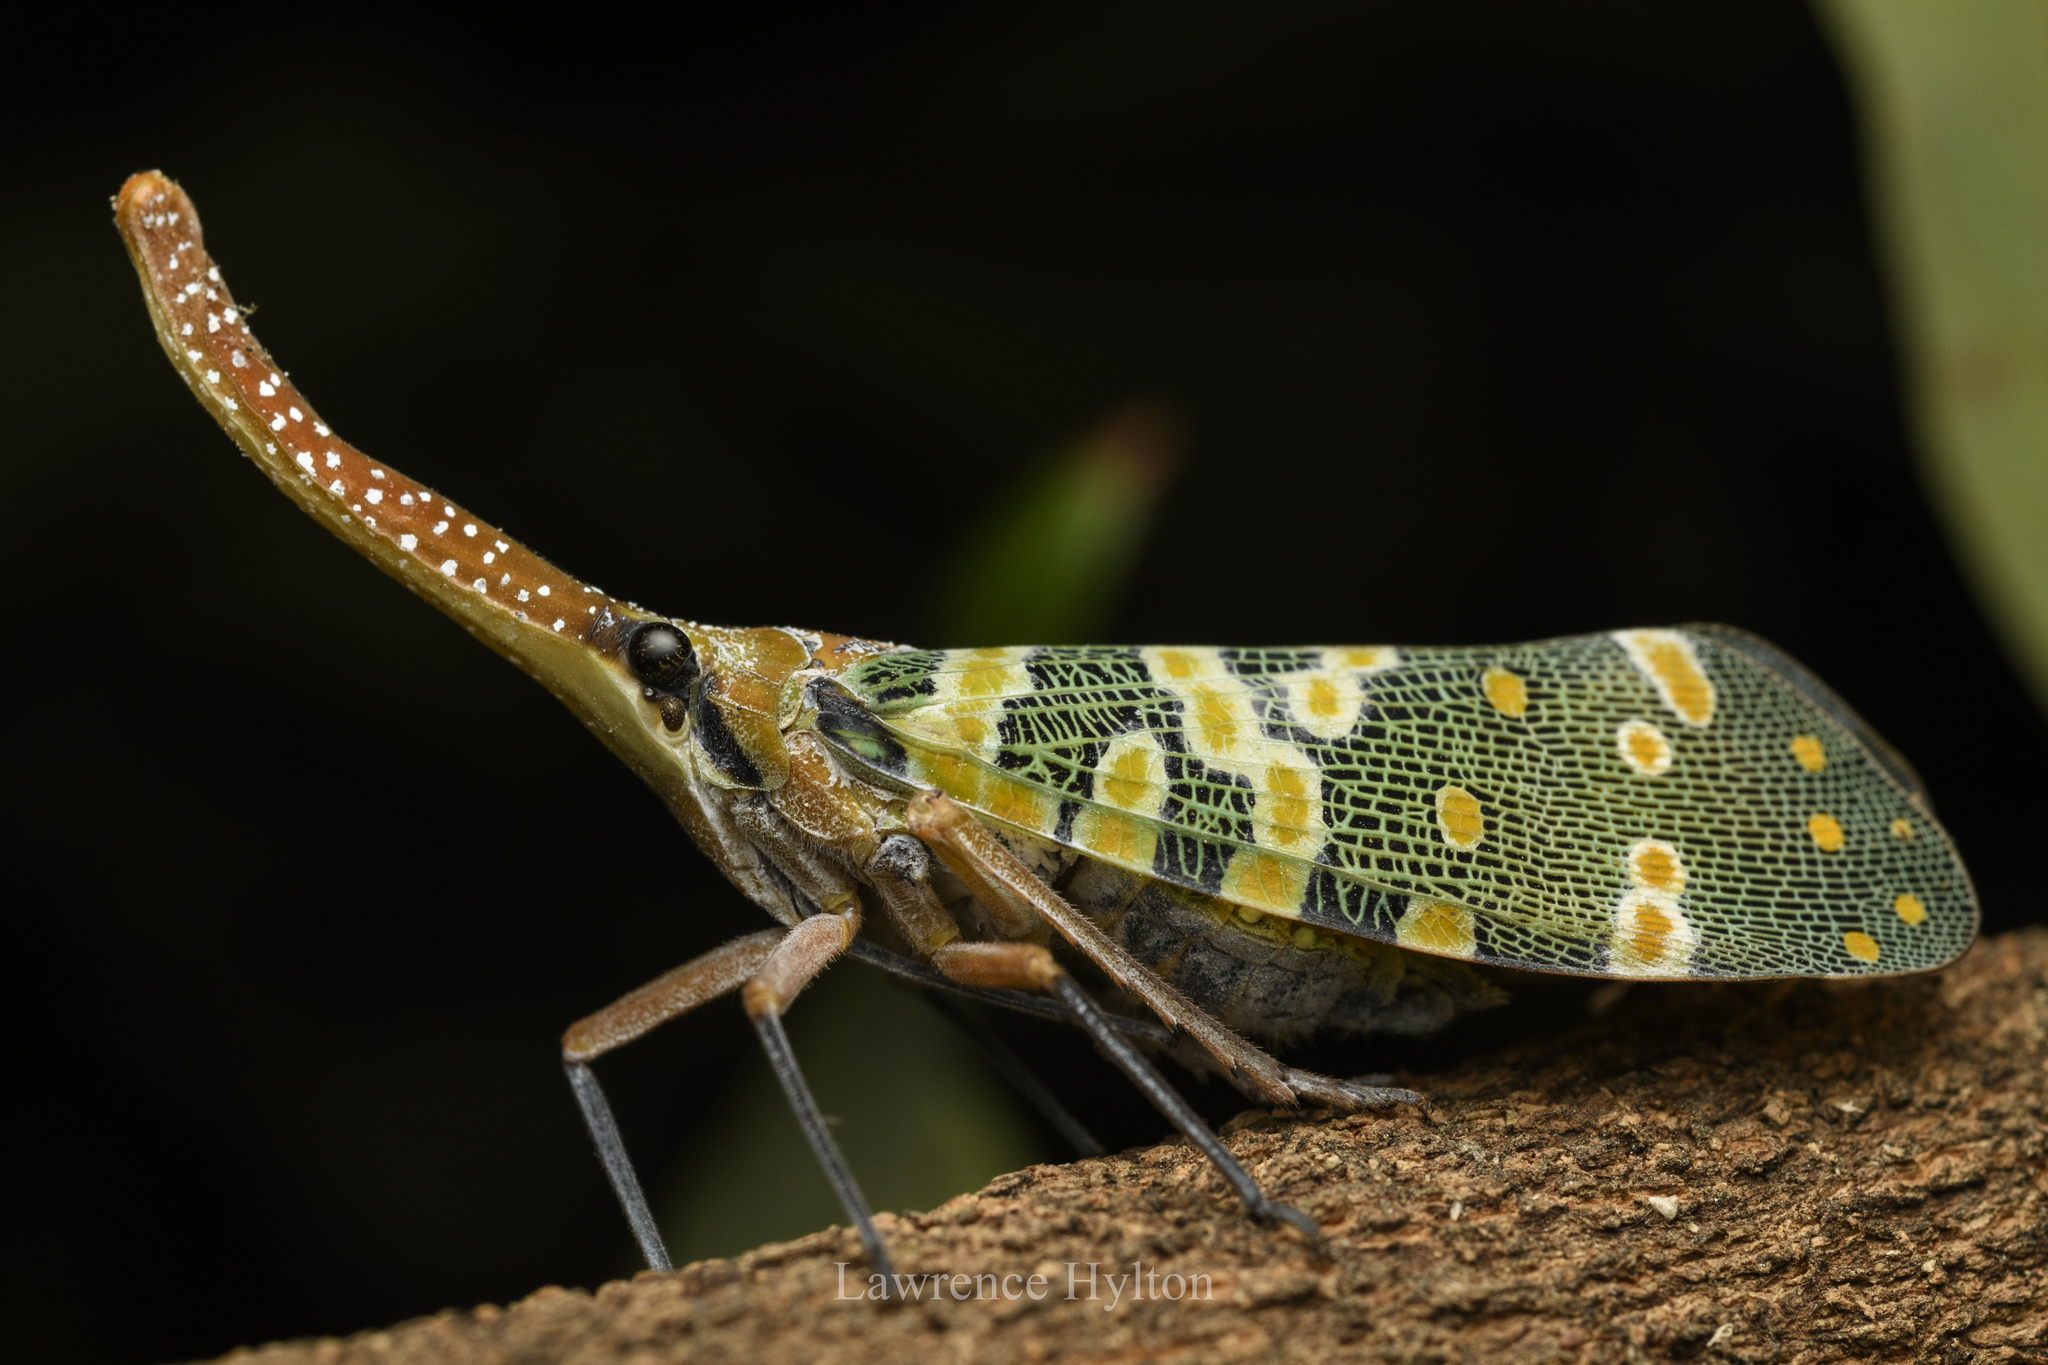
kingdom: Animalia
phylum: Arthropoda
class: Insecta
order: Hemiptera
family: Fulgoridae
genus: Pyrops
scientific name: Pyrops candelaria
